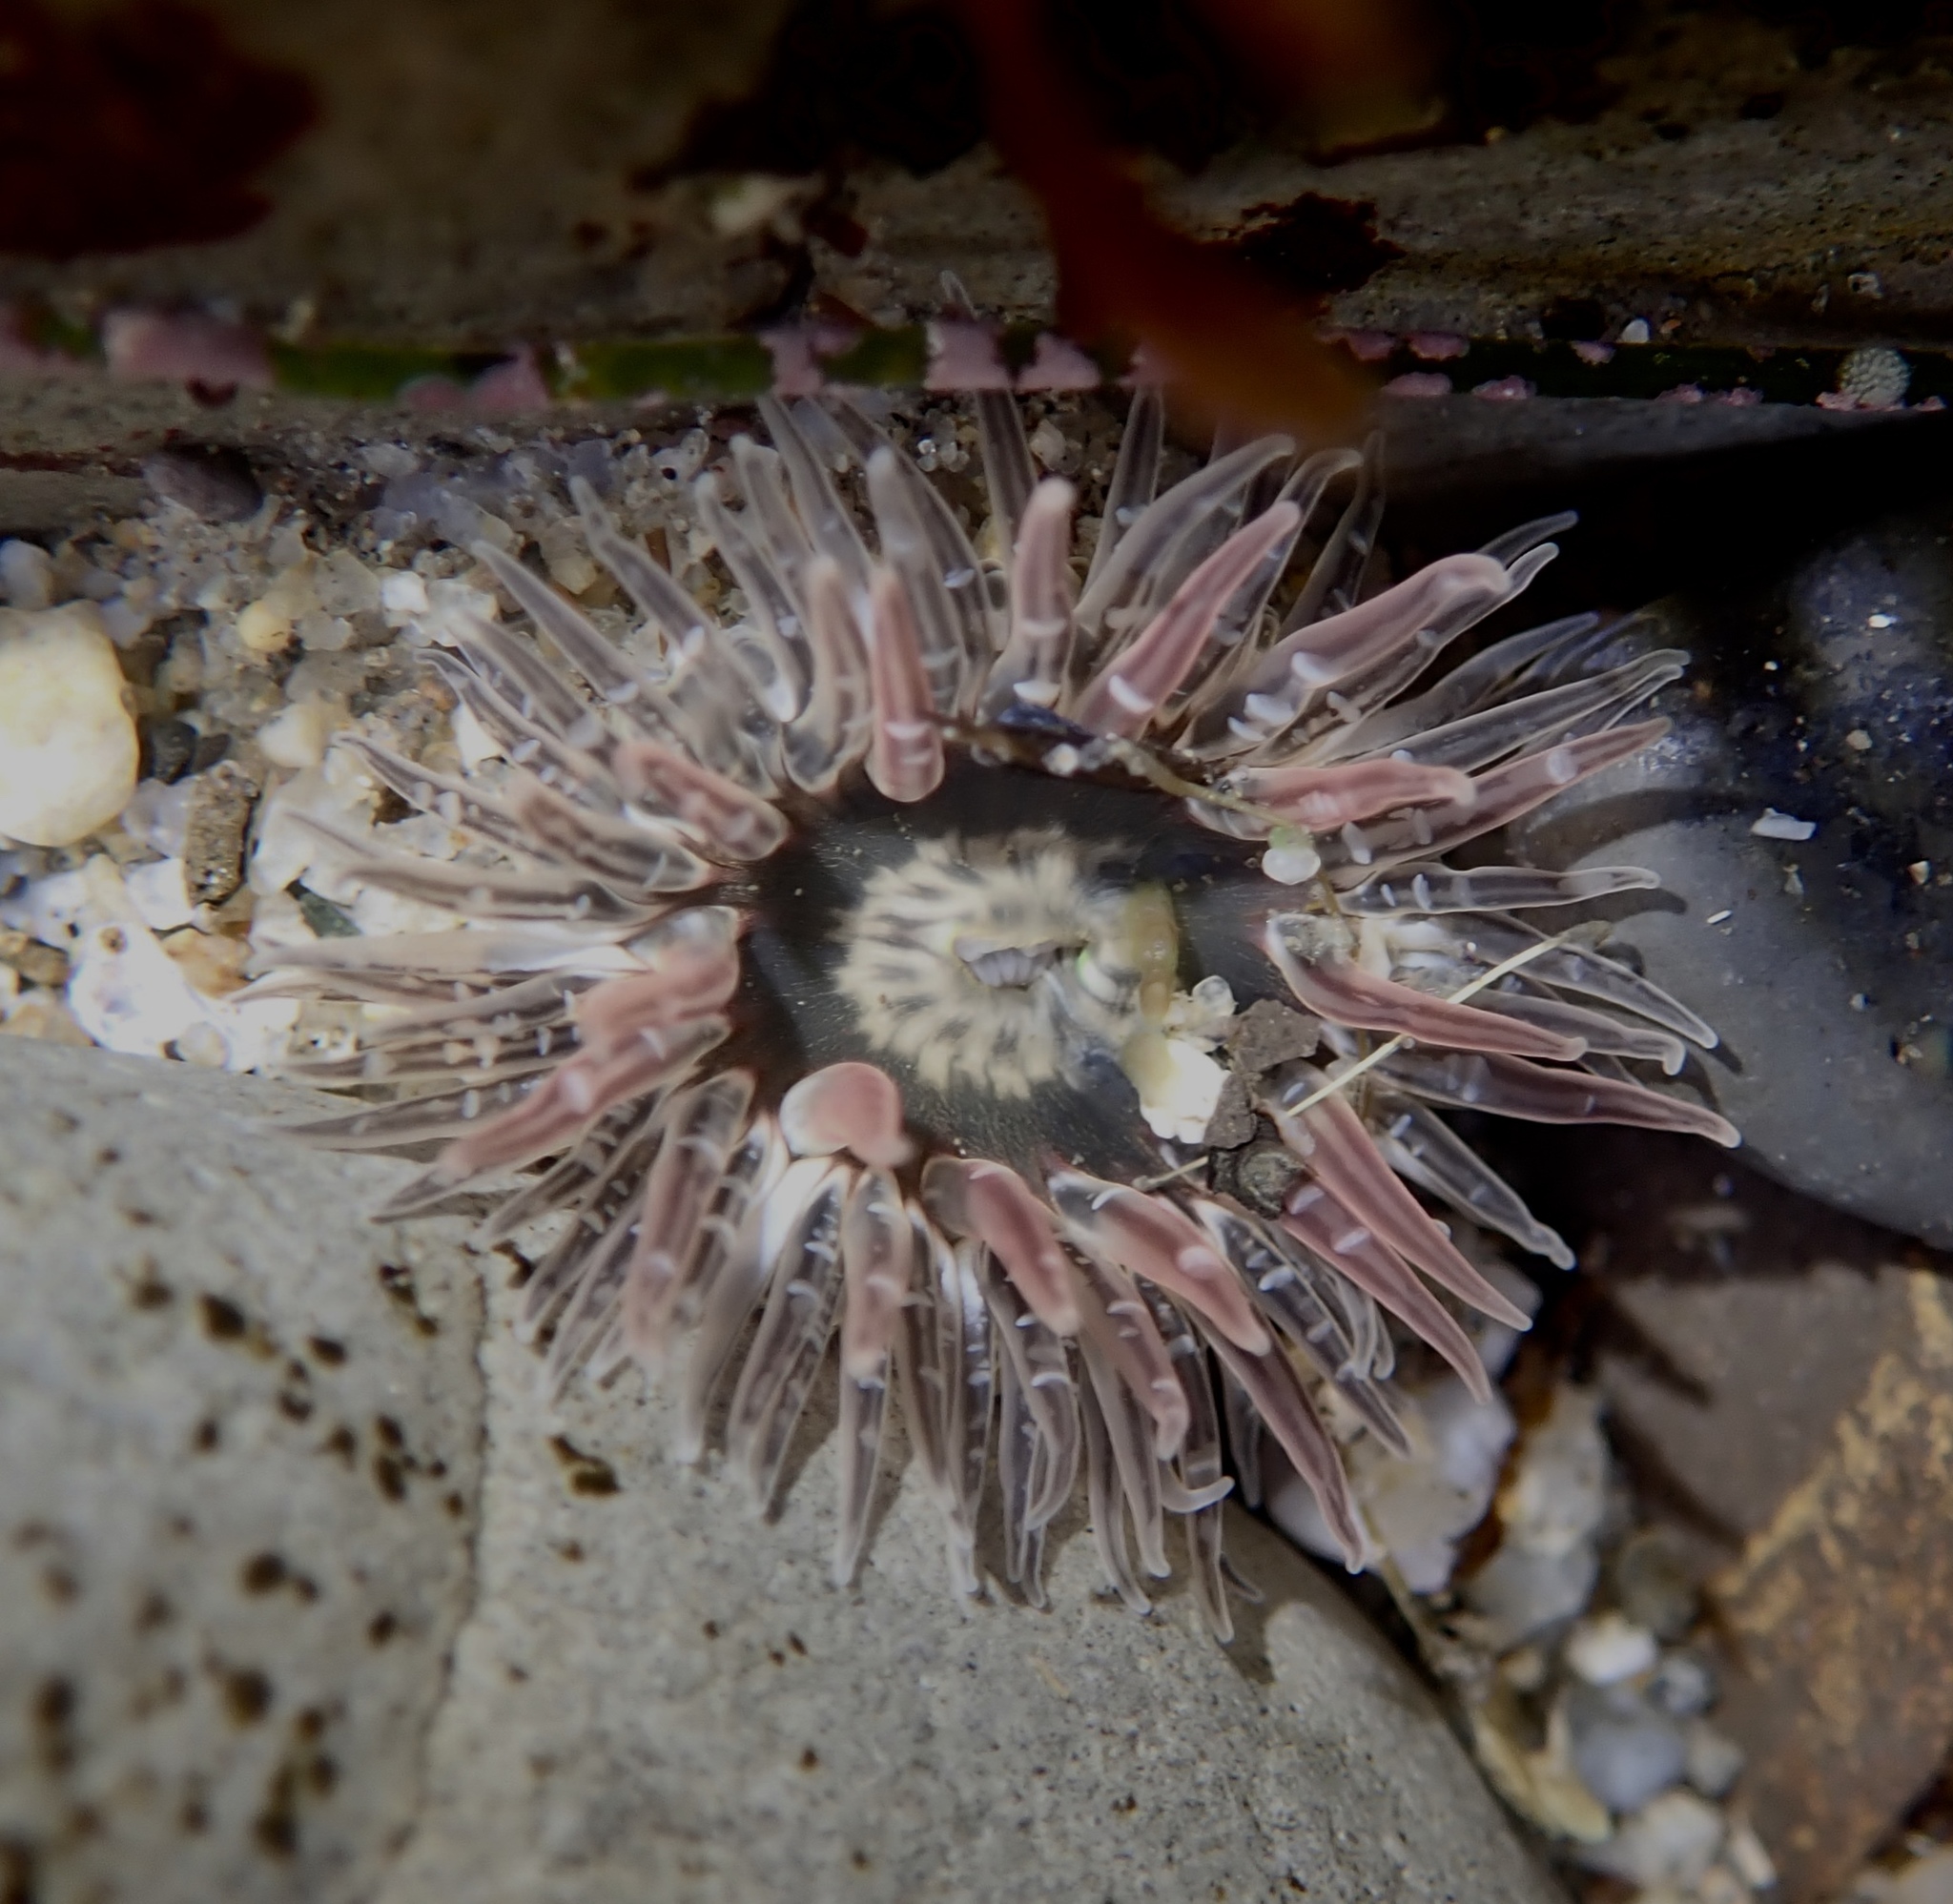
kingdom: Animalia
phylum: Cnidaria
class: Anthozoa
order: Actiniaria
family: Actiniidae
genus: Anthopleura
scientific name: Anthopleura artemisia
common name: Buried sea anemone
